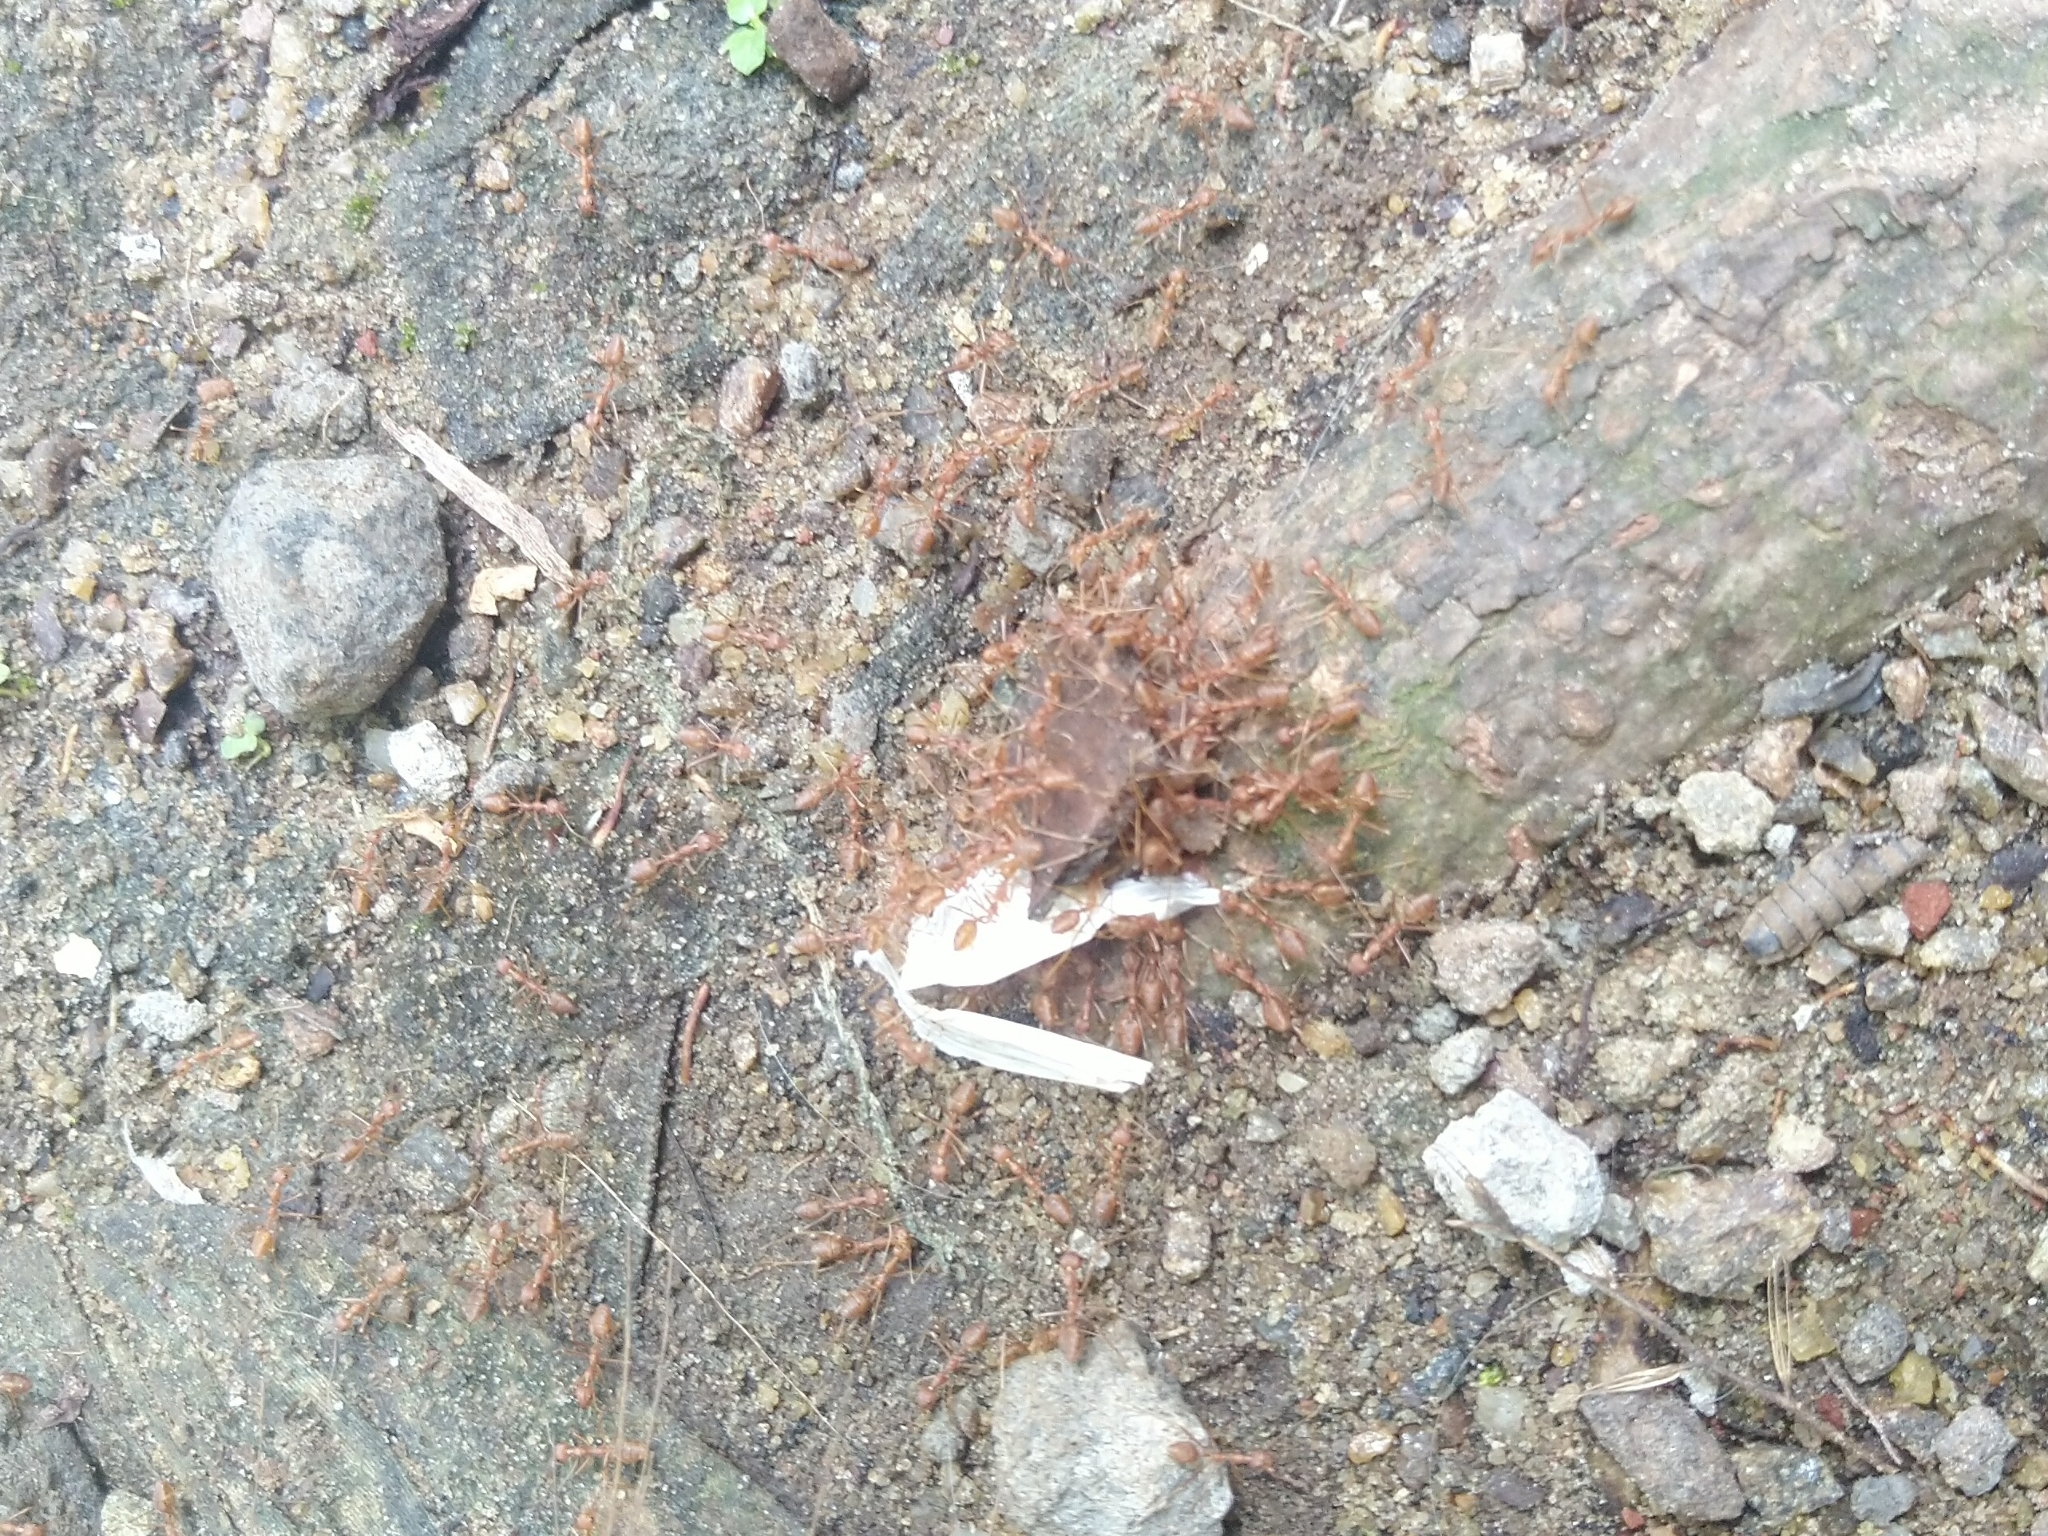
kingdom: Animalia
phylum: Arthropoda
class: Insecta
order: Hymenoptera
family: Formicidae
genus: Oecophylla
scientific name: Oecophylla smaragdina
